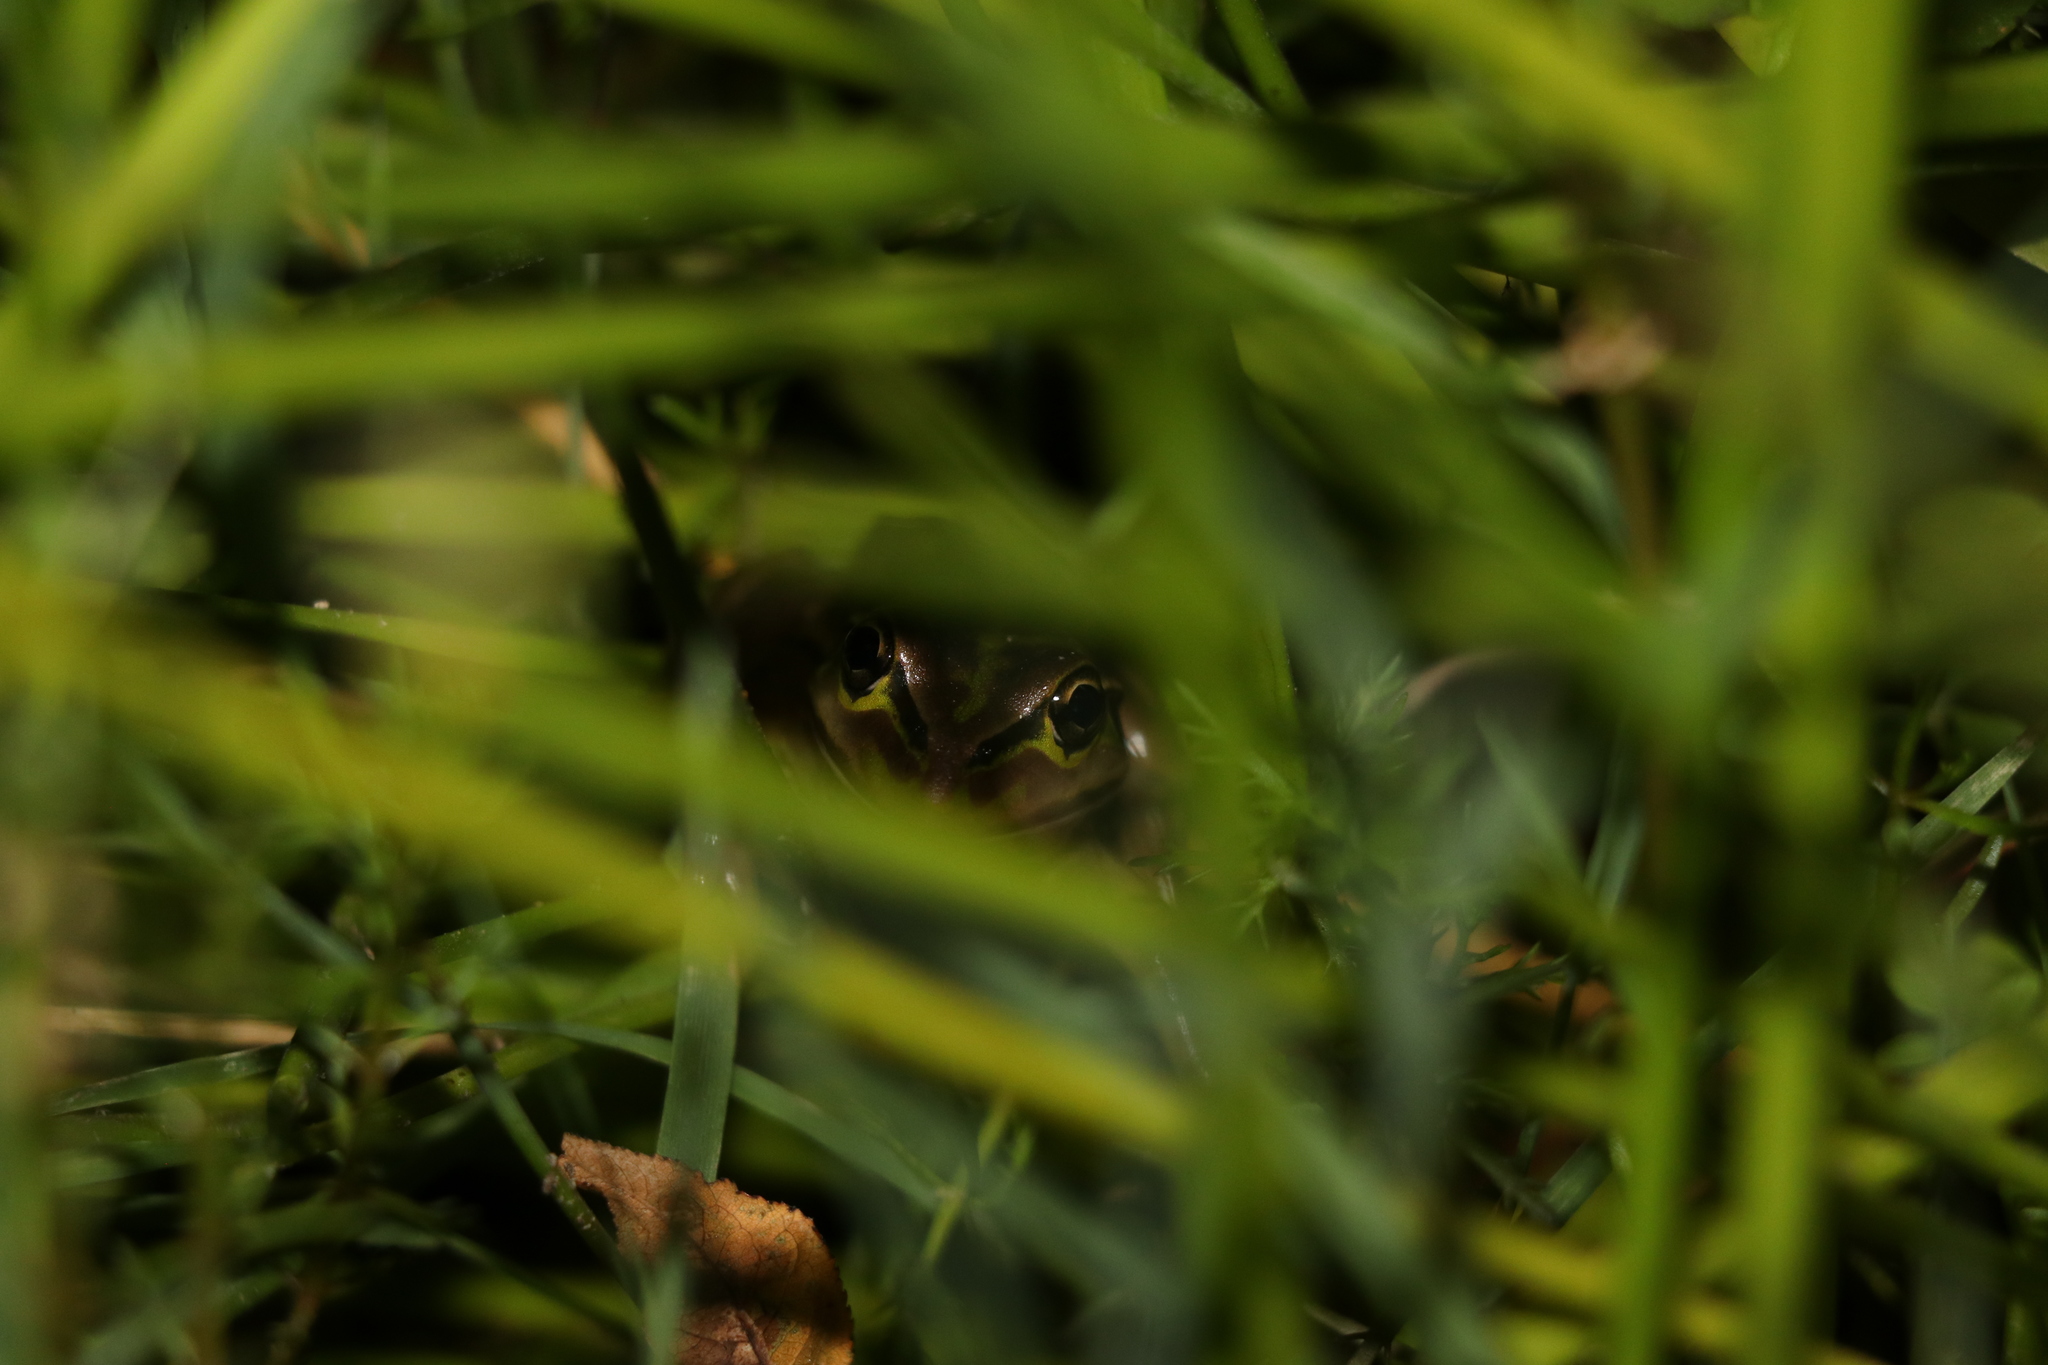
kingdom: Animalia
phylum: Chordata
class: Amphibia
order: Anura
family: Pelodryadidae
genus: Ranoidea
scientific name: Ranoidea raniformis
